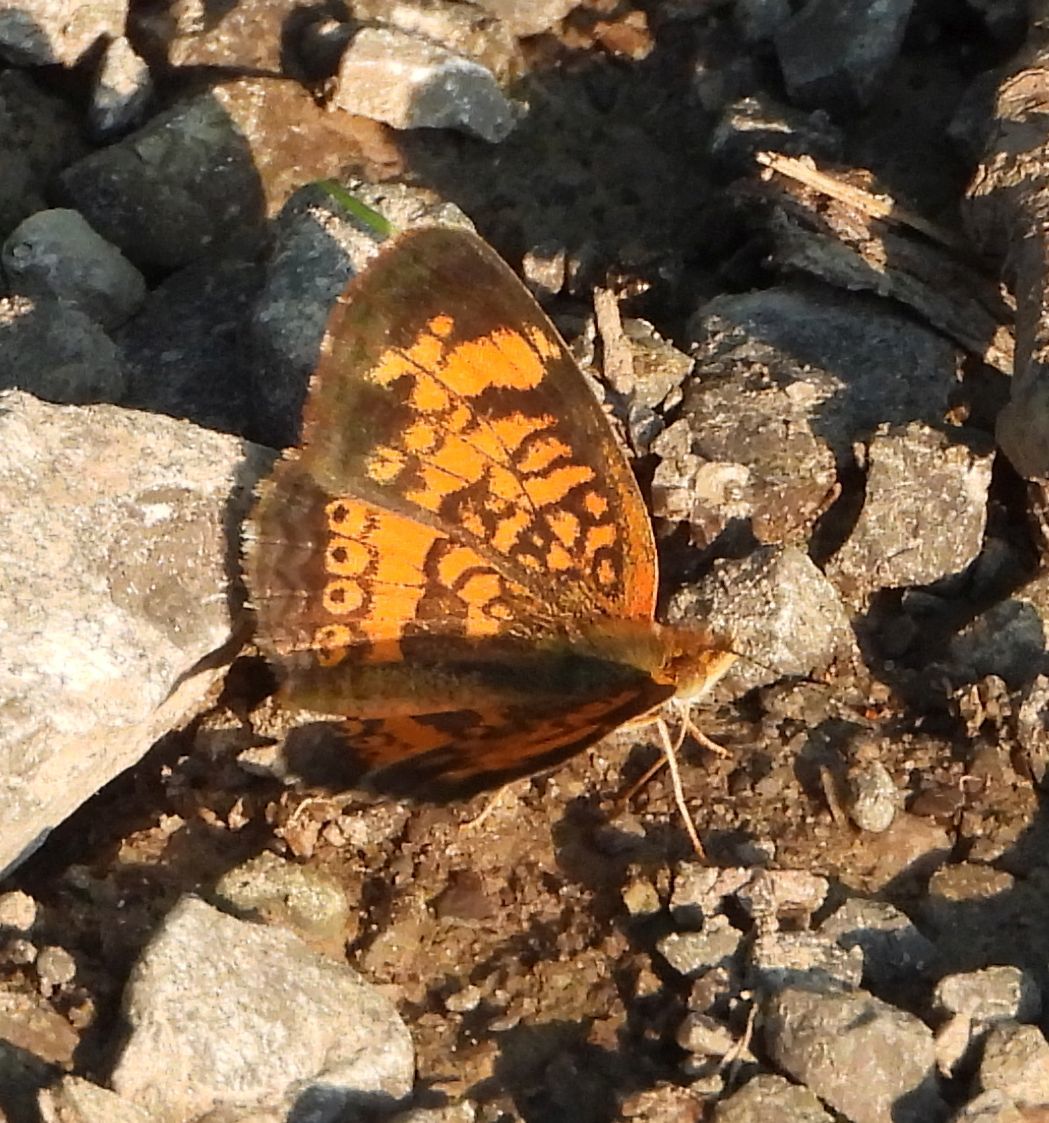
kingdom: Animalia
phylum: Arthropoda
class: Insecta
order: Lepidoptera
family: Nymphalidae
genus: Phyciodes
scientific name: Phyciodes tharos
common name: Pearl crescent
